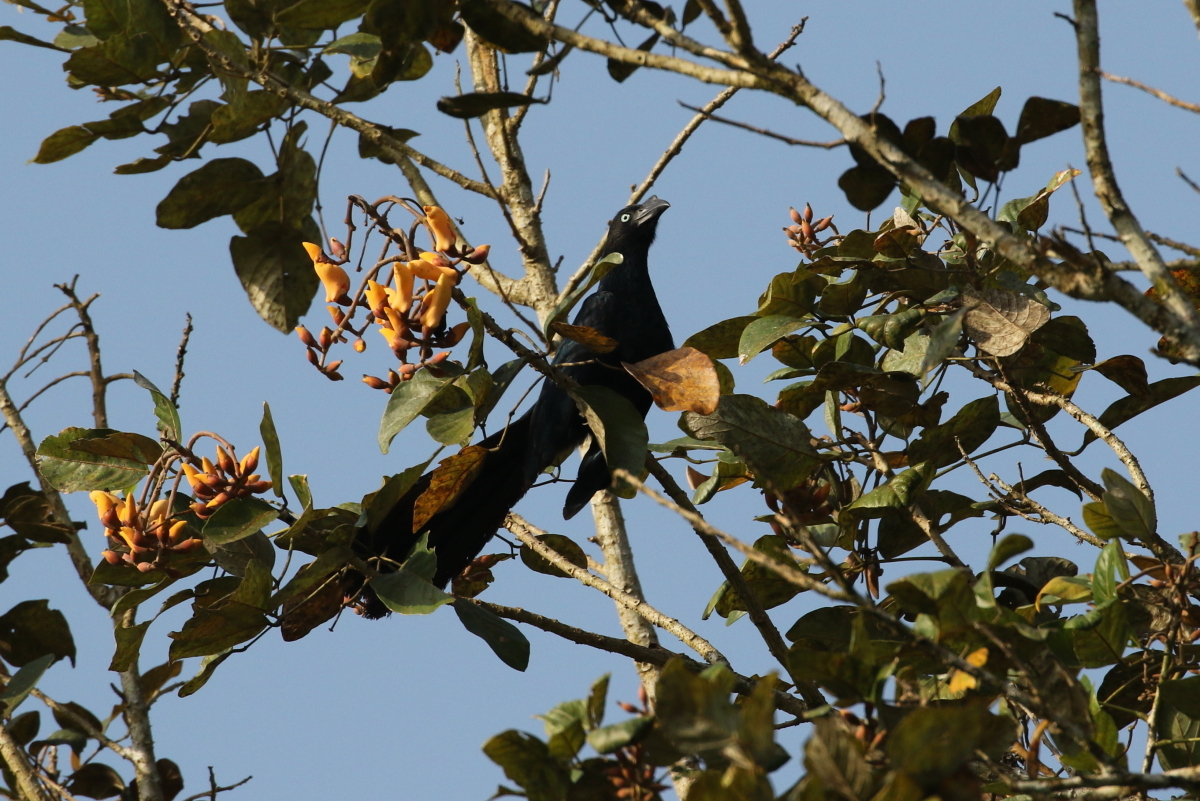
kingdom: Animalia
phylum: Chordata
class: Aves
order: Cuculiformes
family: Cuculidae
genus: Crotophaga
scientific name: Crotophaga major
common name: Greater ani
